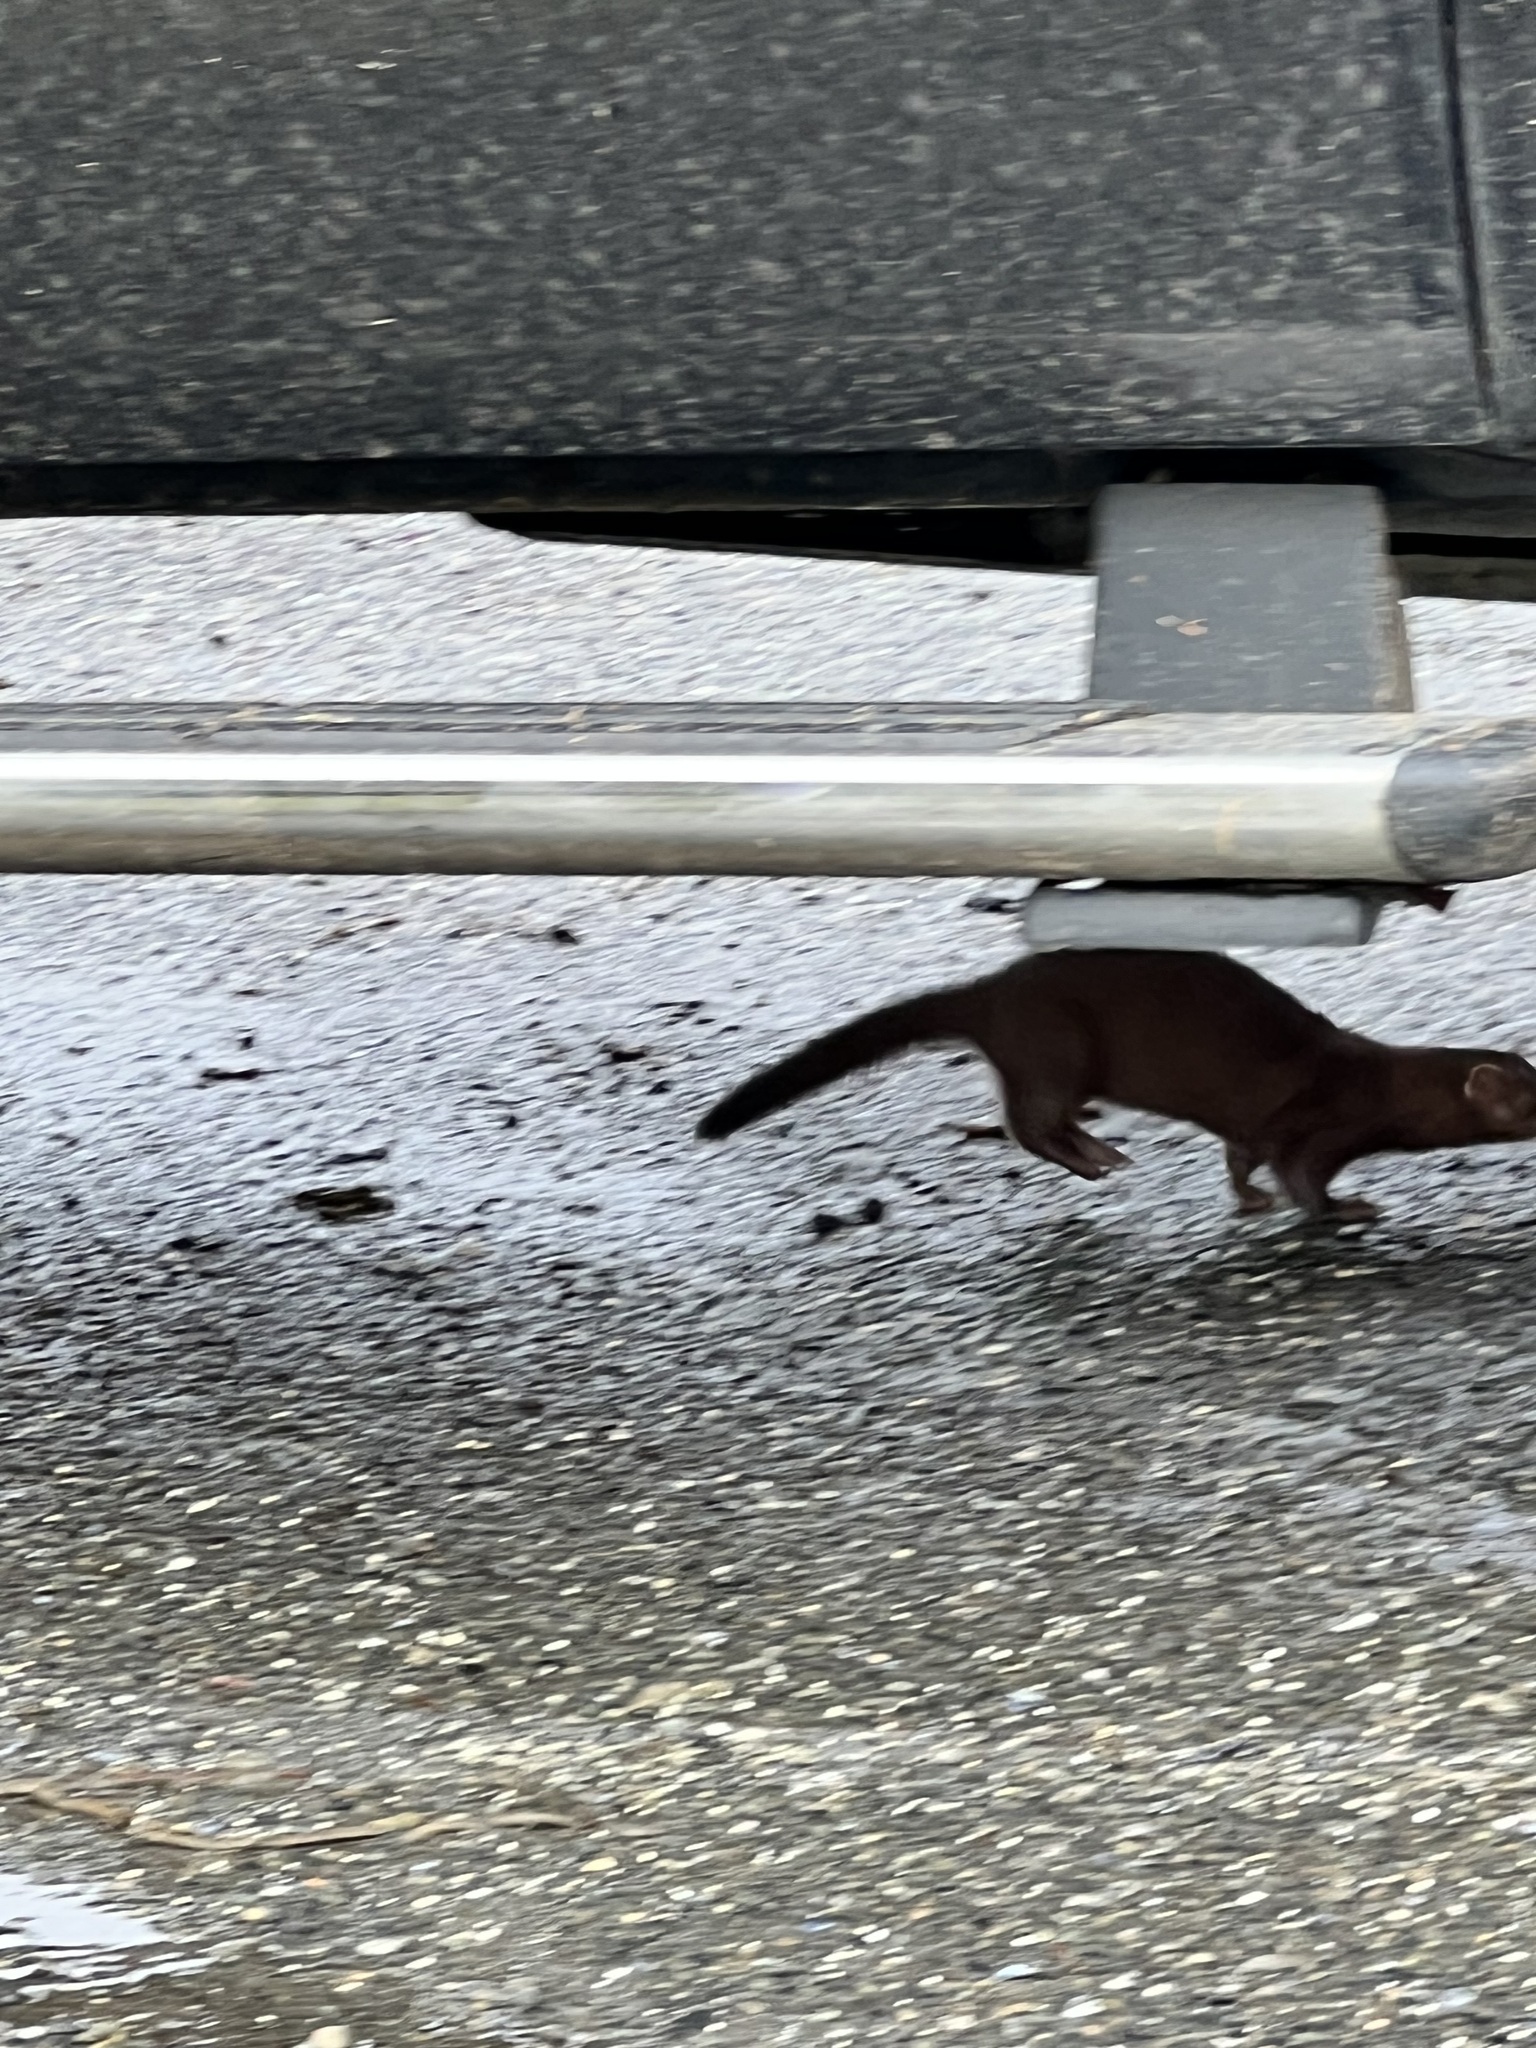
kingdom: Animalia
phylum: Chordata
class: Mammalia
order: Carnivora
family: Mustelidae
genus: Mustela
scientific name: Mustela
